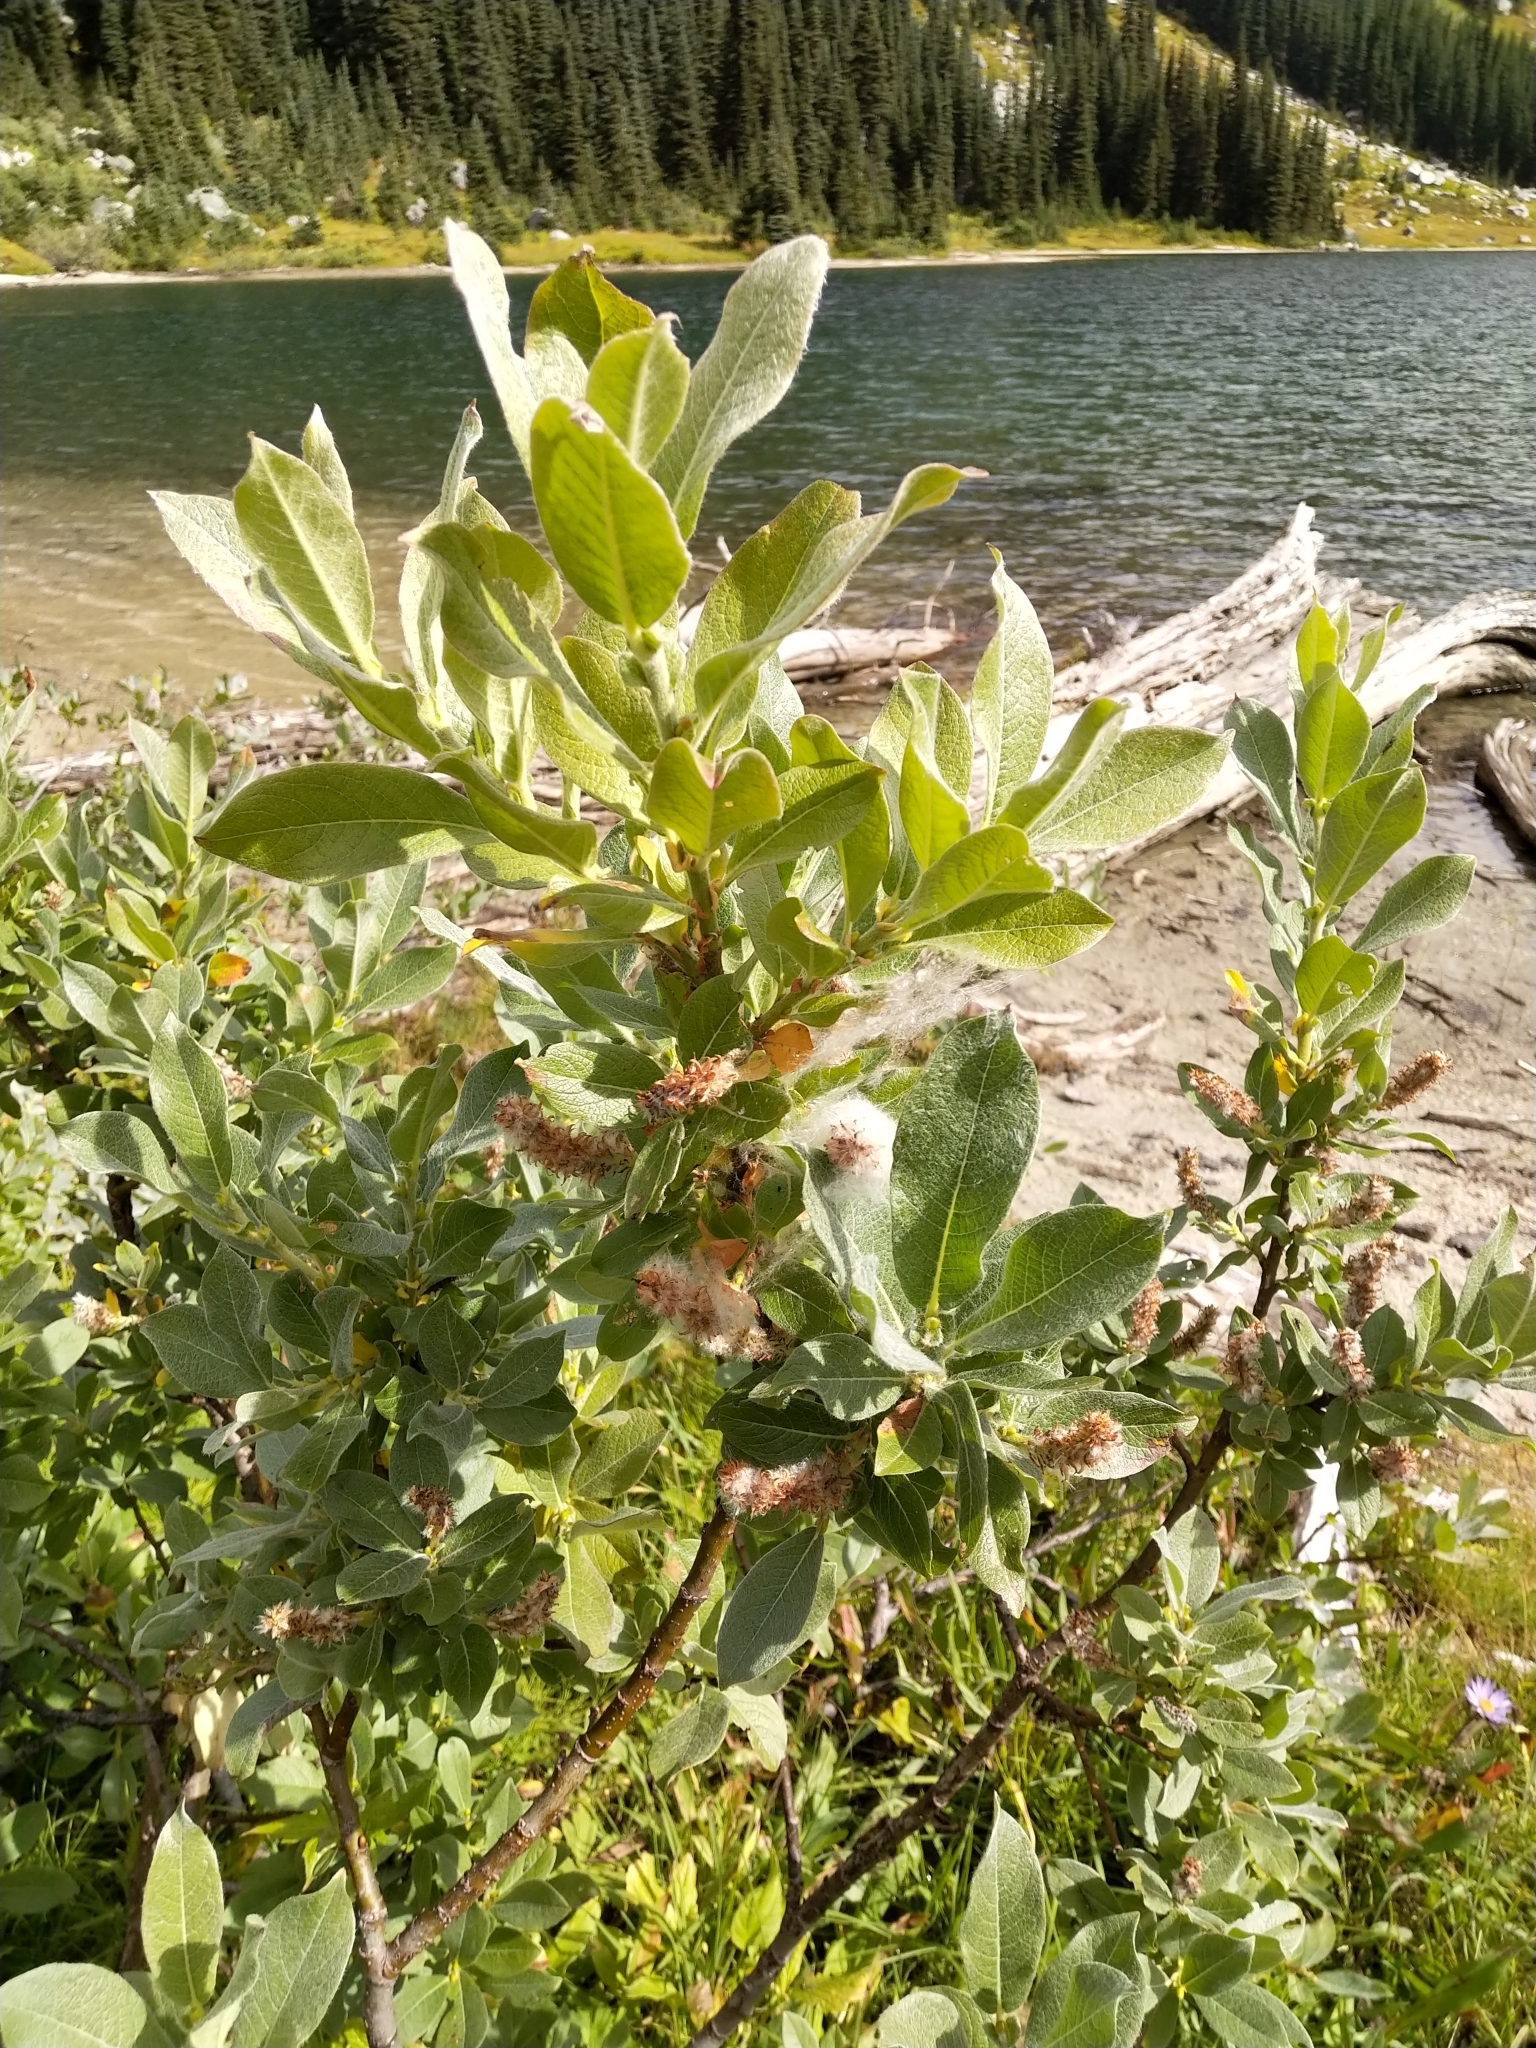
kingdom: Plantae
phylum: Tracheophyta
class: Magnoliopsida
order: Malpighiales
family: Salicaceae
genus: Salix
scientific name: Salix commutata
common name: Under-green willow
